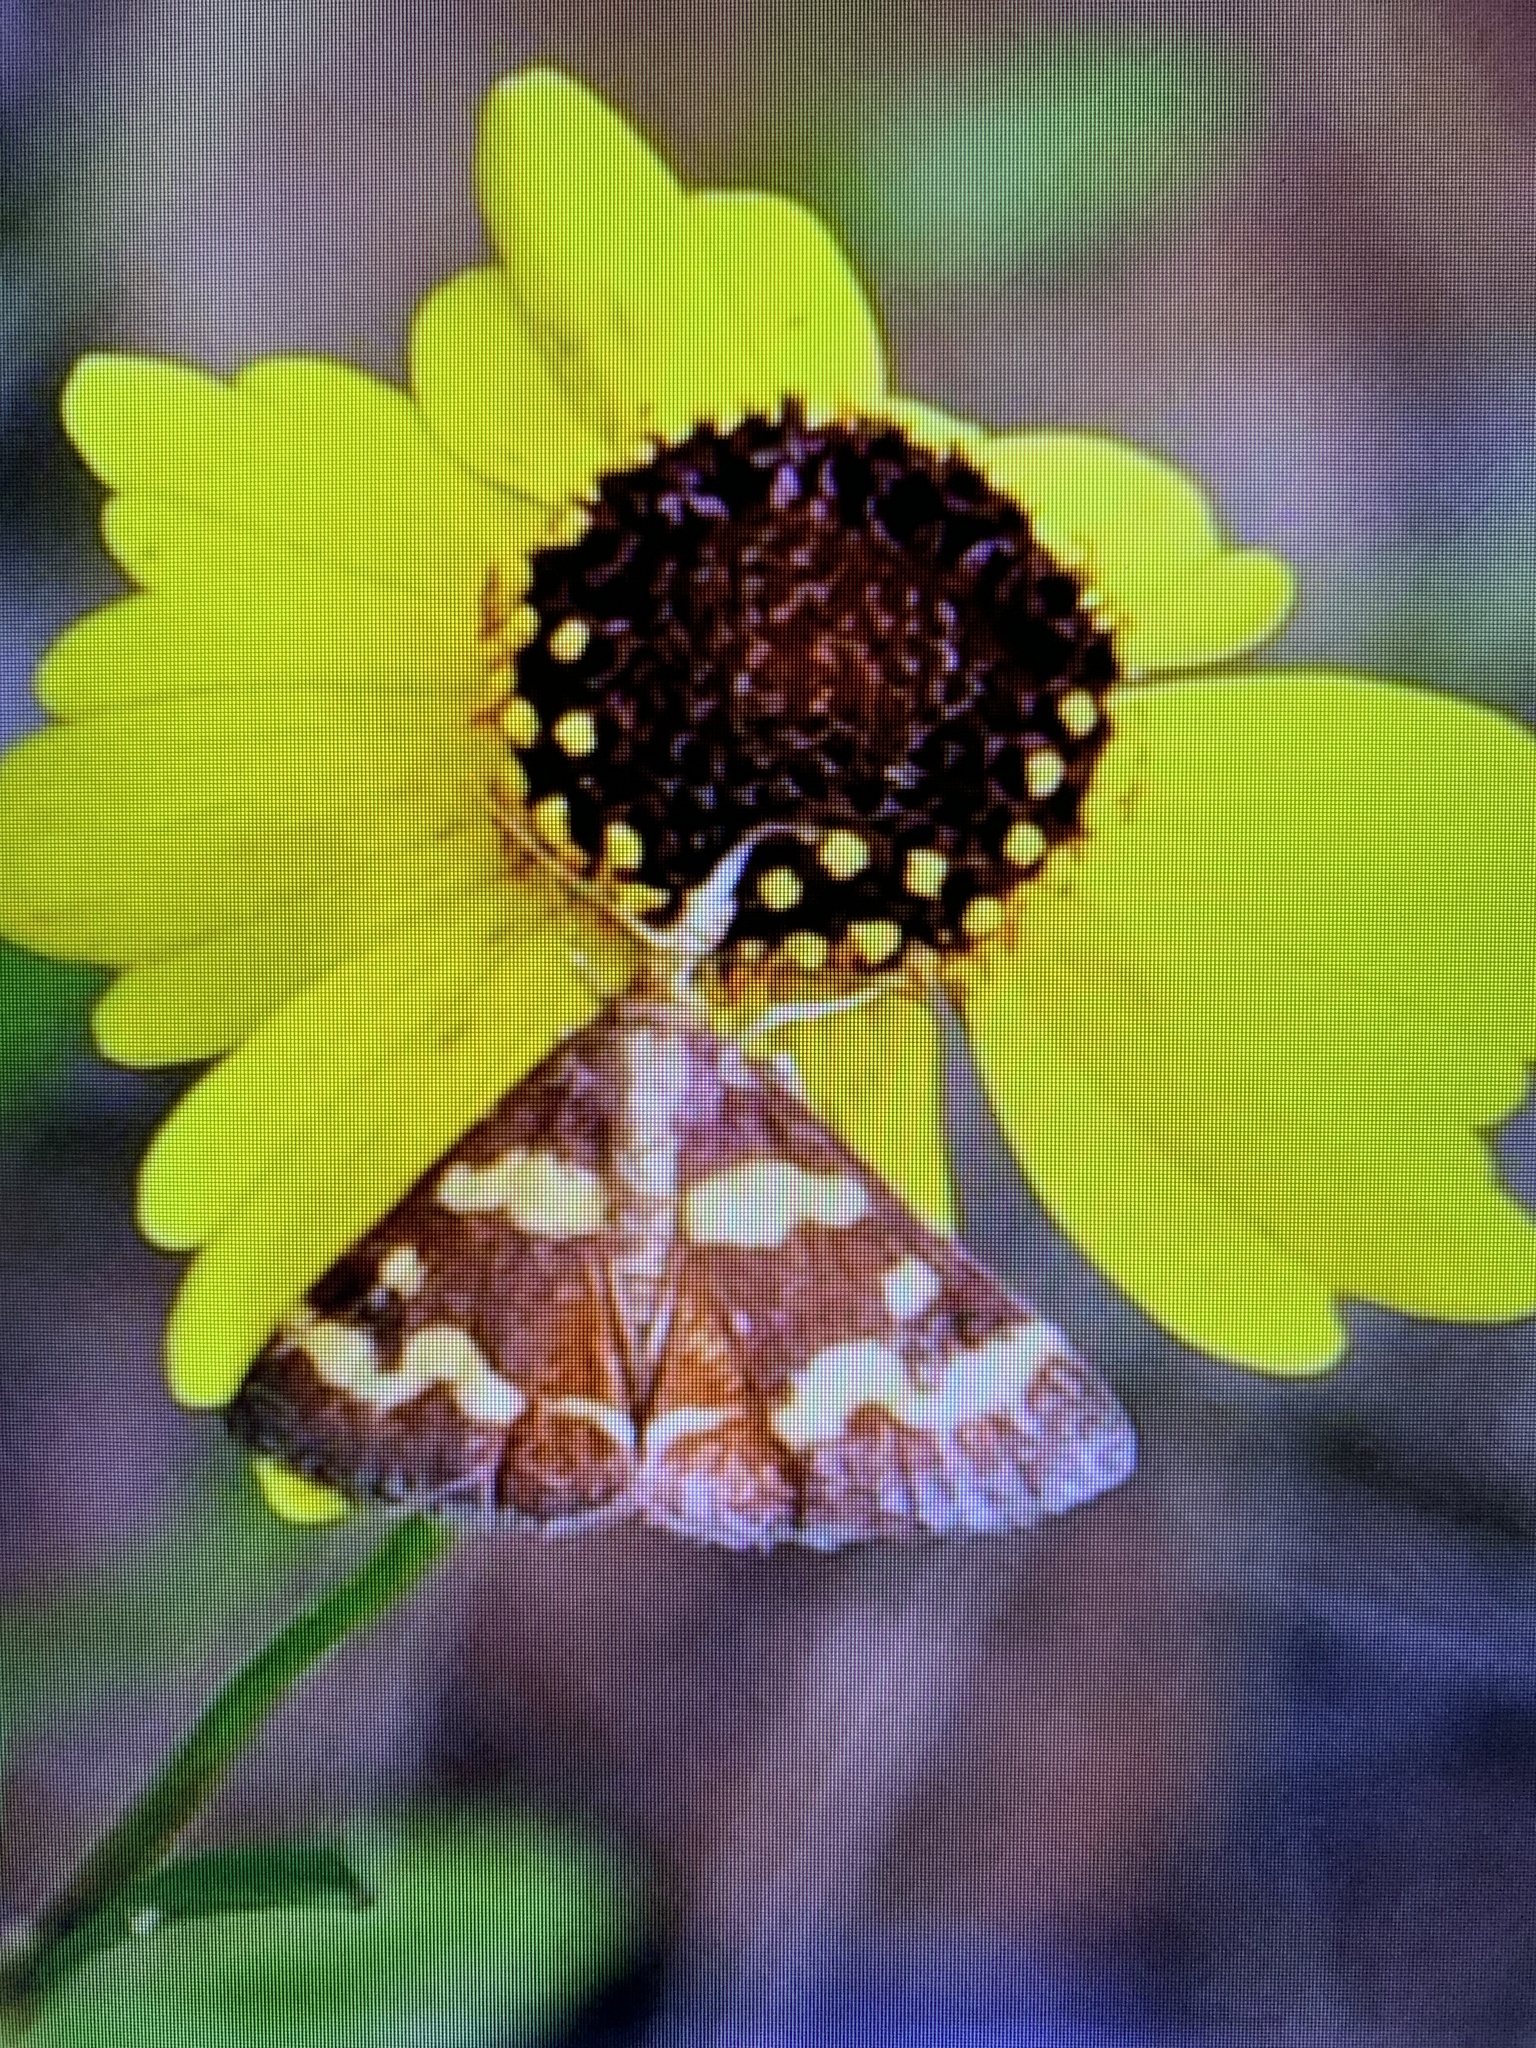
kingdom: Animalia
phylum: Arthropoda
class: Insecta
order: Lepidoptera
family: Crambidae
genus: Pyrausta
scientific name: Pyrausta tyralis
